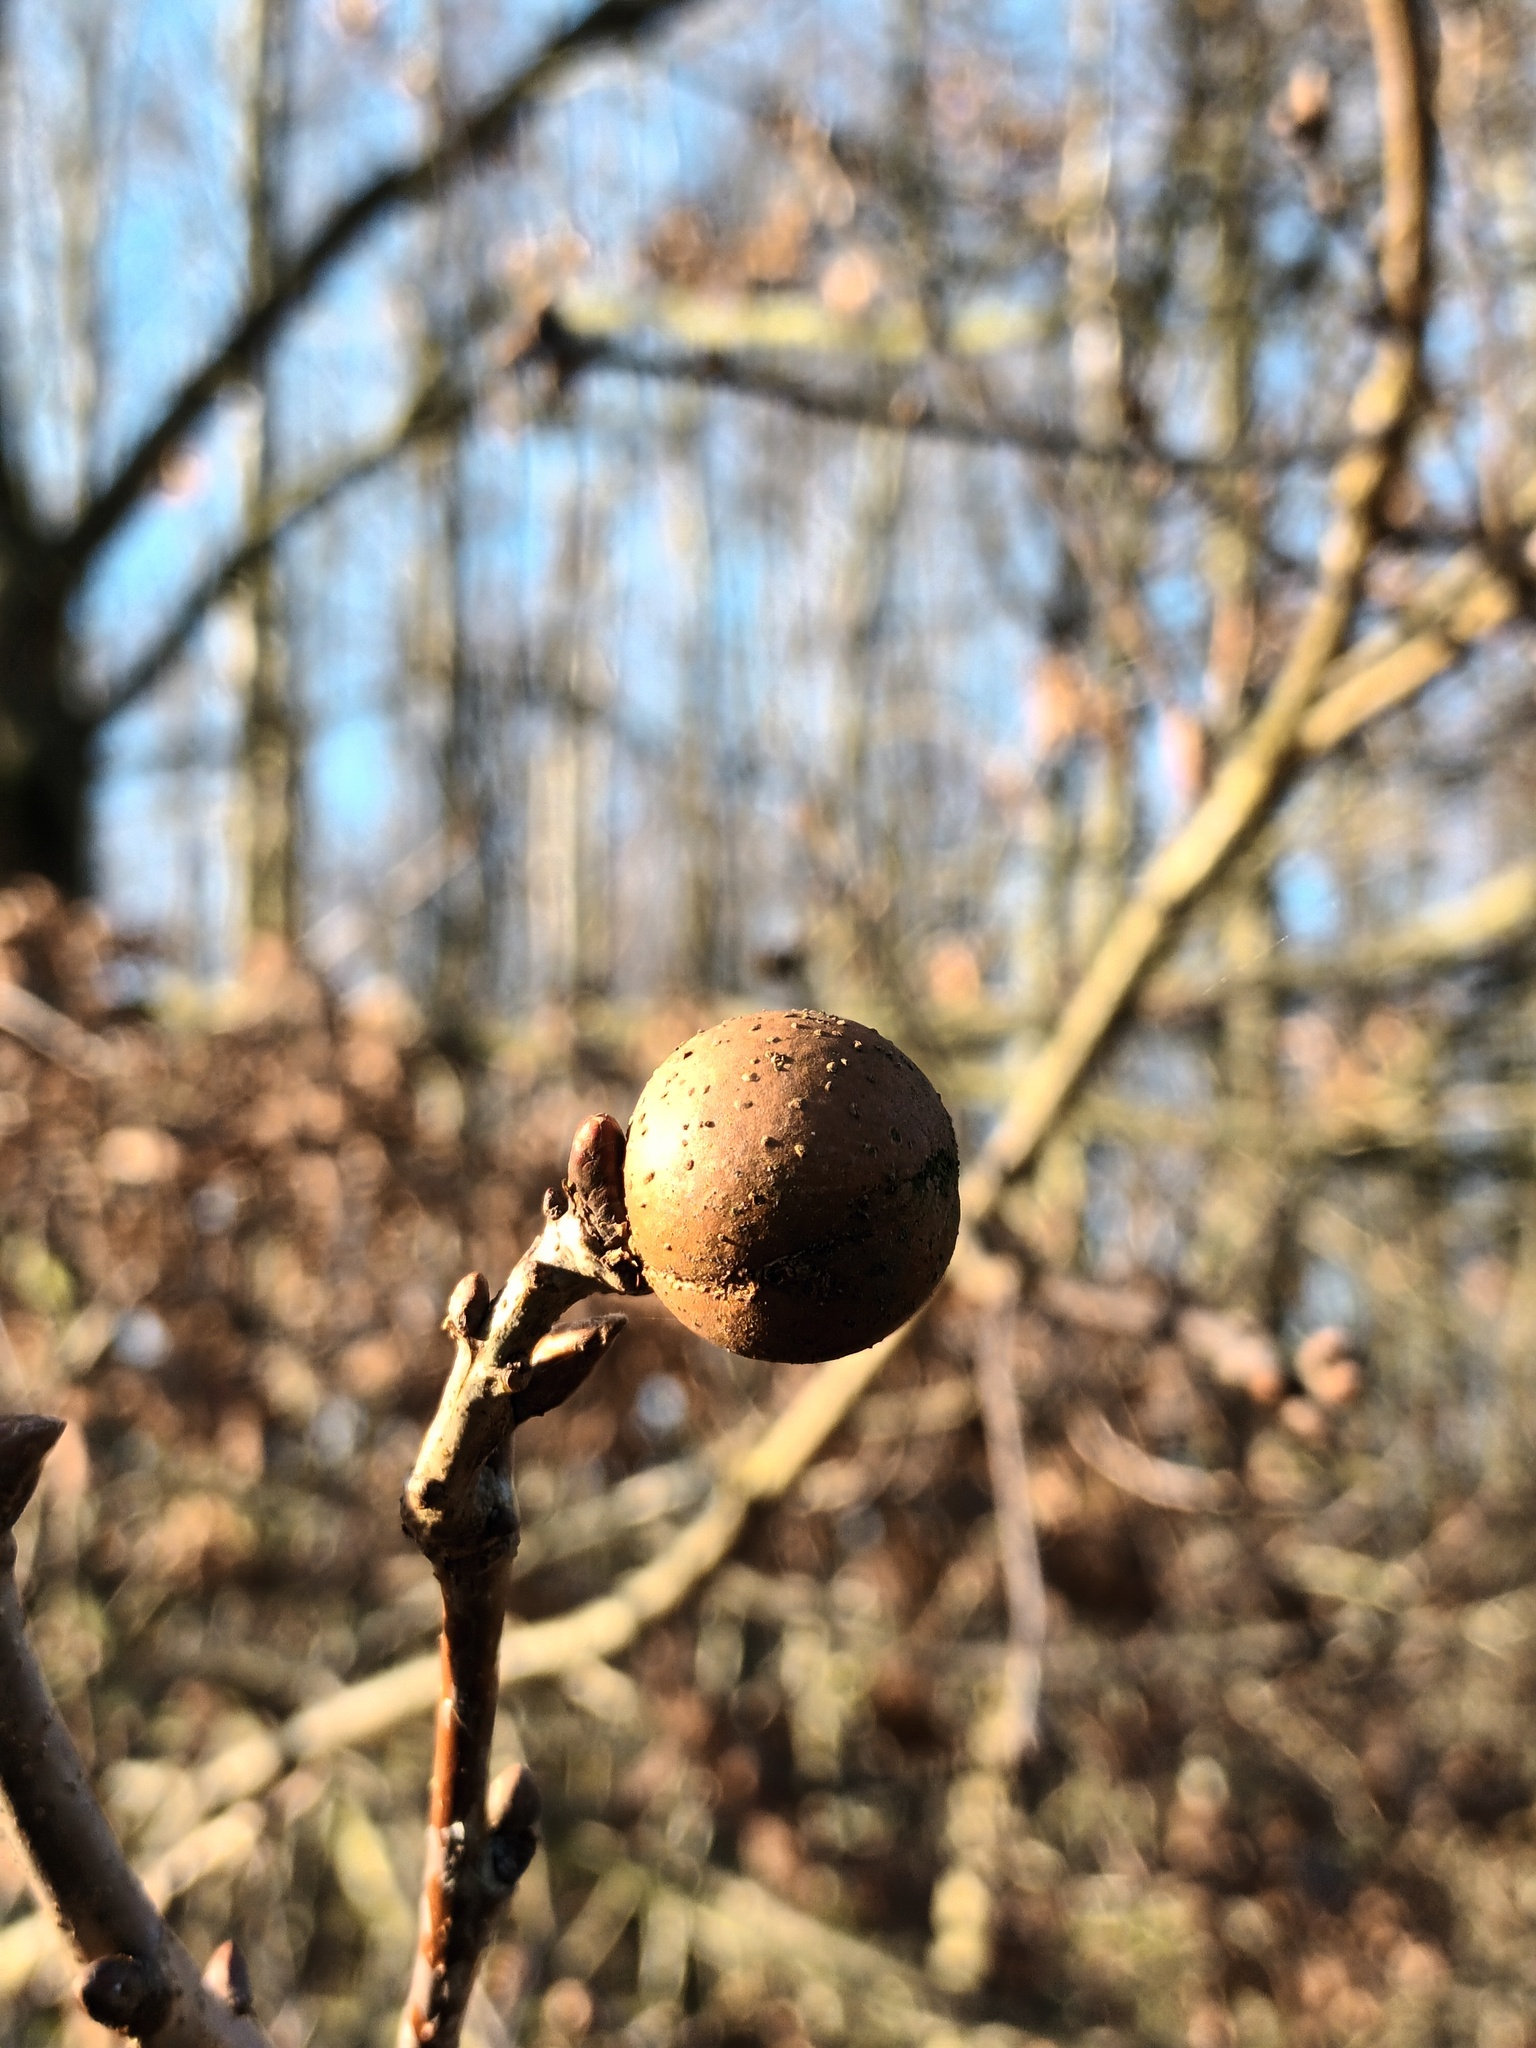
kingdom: Animalia
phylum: Arthropoda
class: Insecta
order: Hymenoptera
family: Cynipidae
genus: Andricus
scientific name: Andricus kollari
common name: Marble gall
